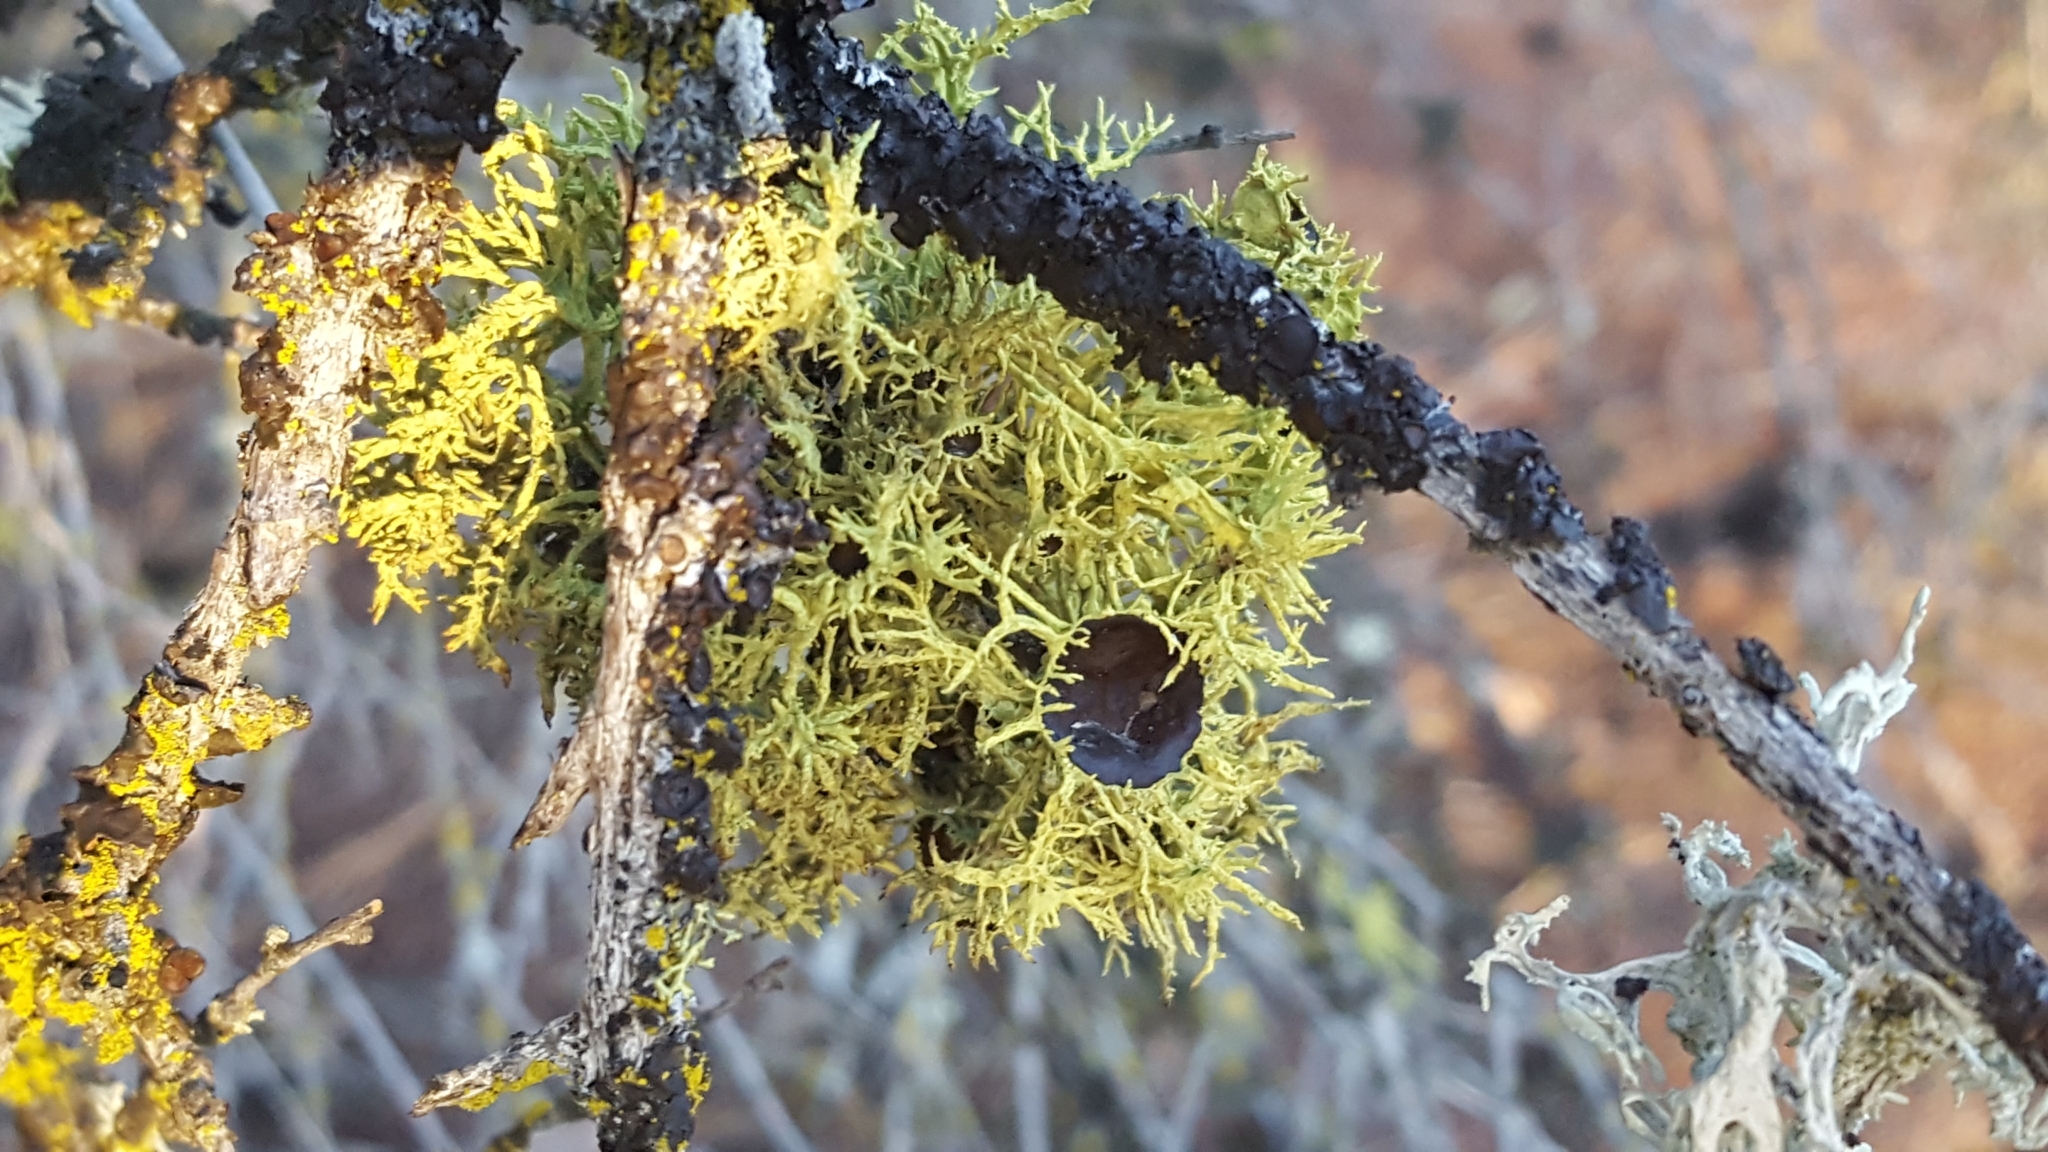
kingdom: Fungi
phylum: Ascomycota
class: Lecanoromycetes
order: Lecanorales
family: Parmeliaceae
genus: Letharia
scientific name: Letharia columbiana
